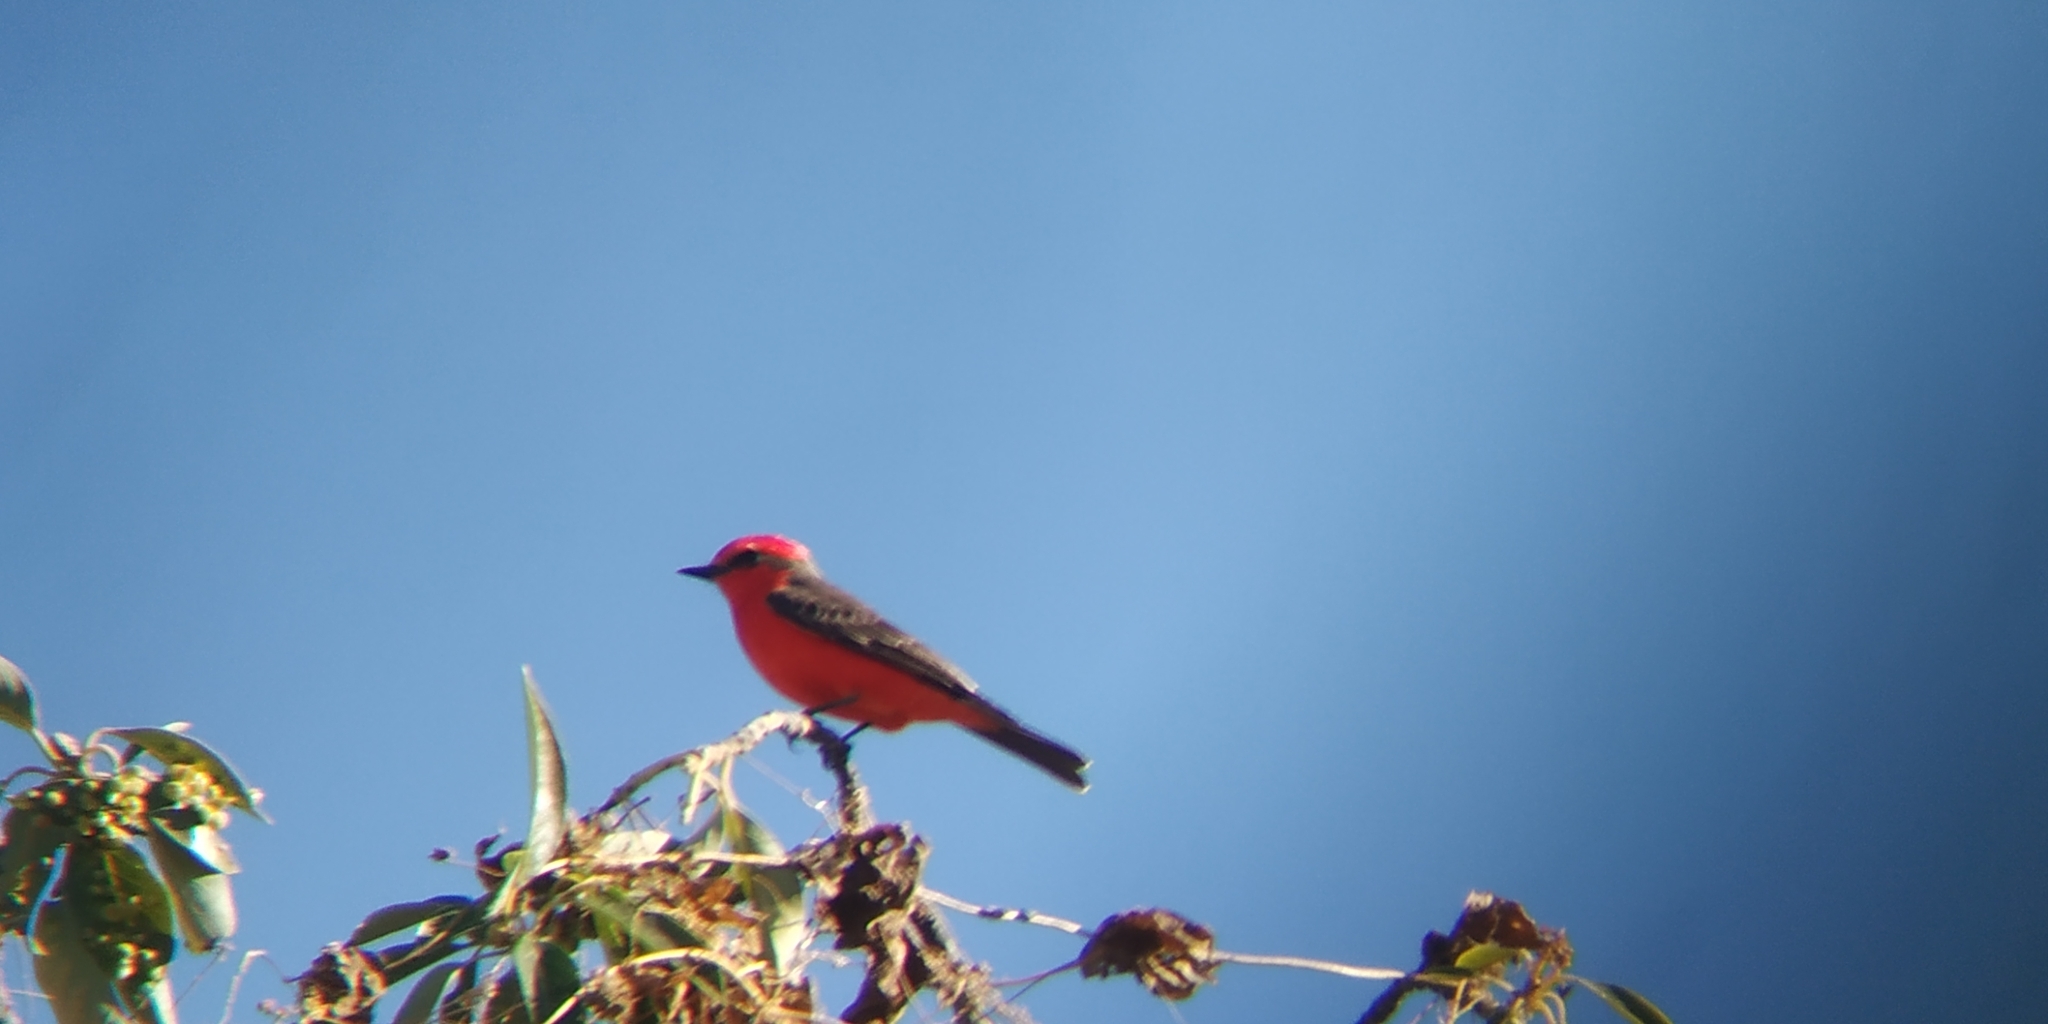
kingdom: Animalia
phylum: Chordata
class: Aves
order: Passeriformes
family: Tyrannidae
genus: Pyrocephalus
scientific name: Pyrocephalus rubinus
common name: Vermilion flycatcher
